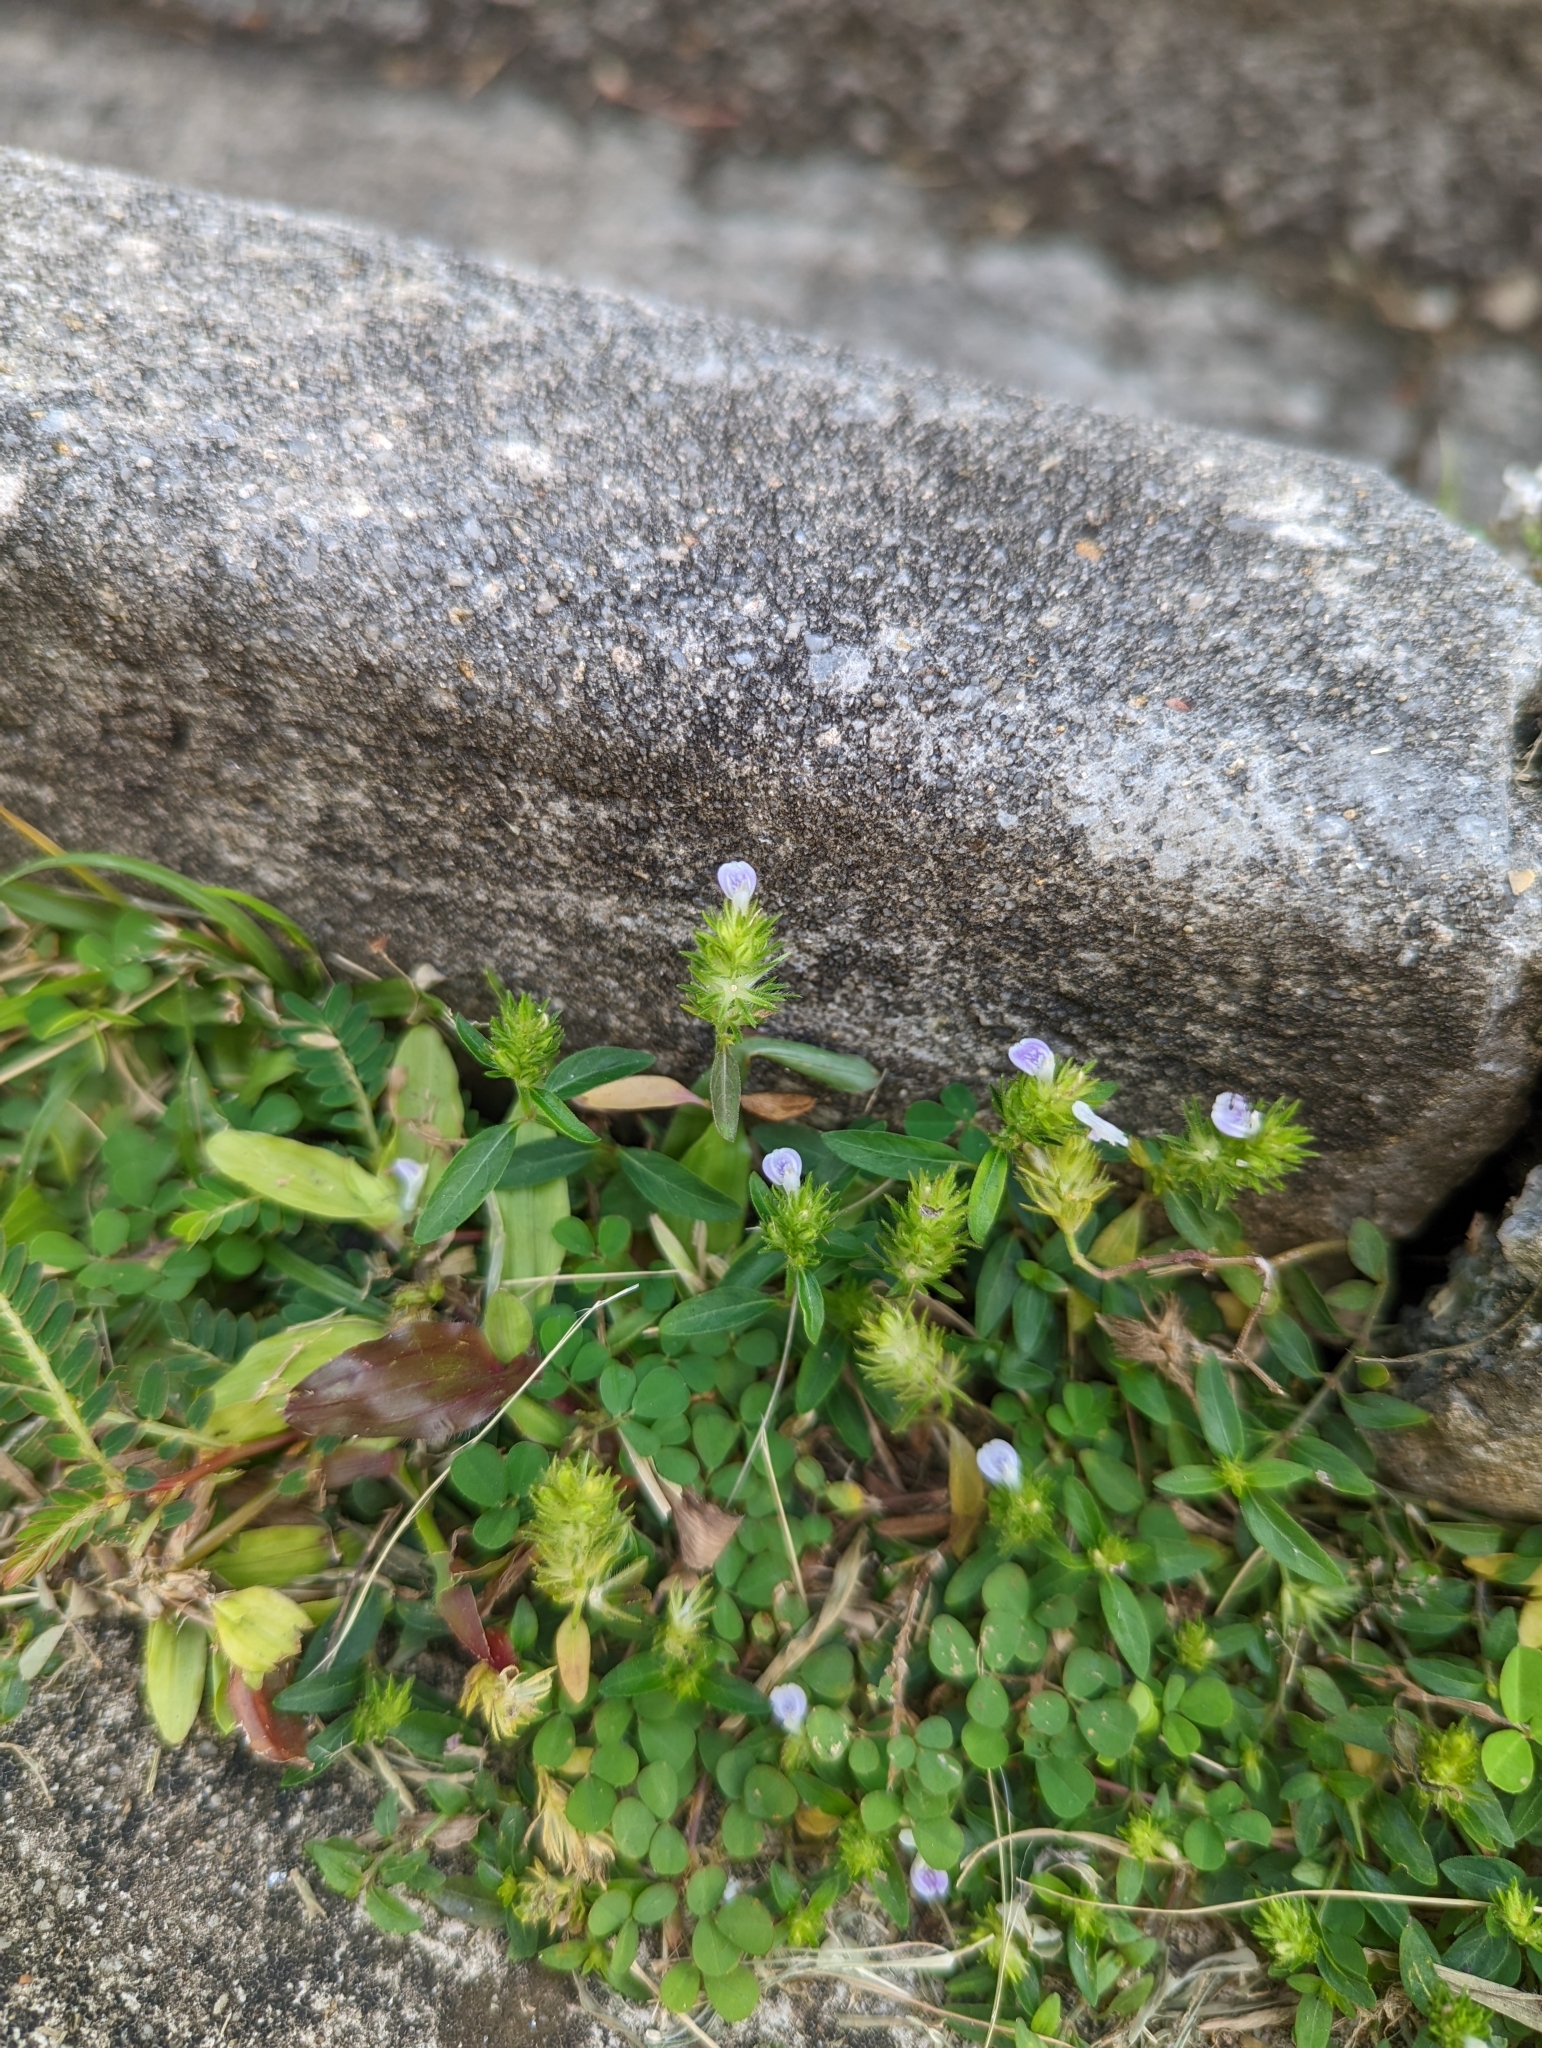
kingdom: Plantae
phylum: Tracheophyta
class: Magnoliopsida
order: Lamiales
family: Acanthaceae
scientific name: Acanthaceae
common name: Acanthaceae
